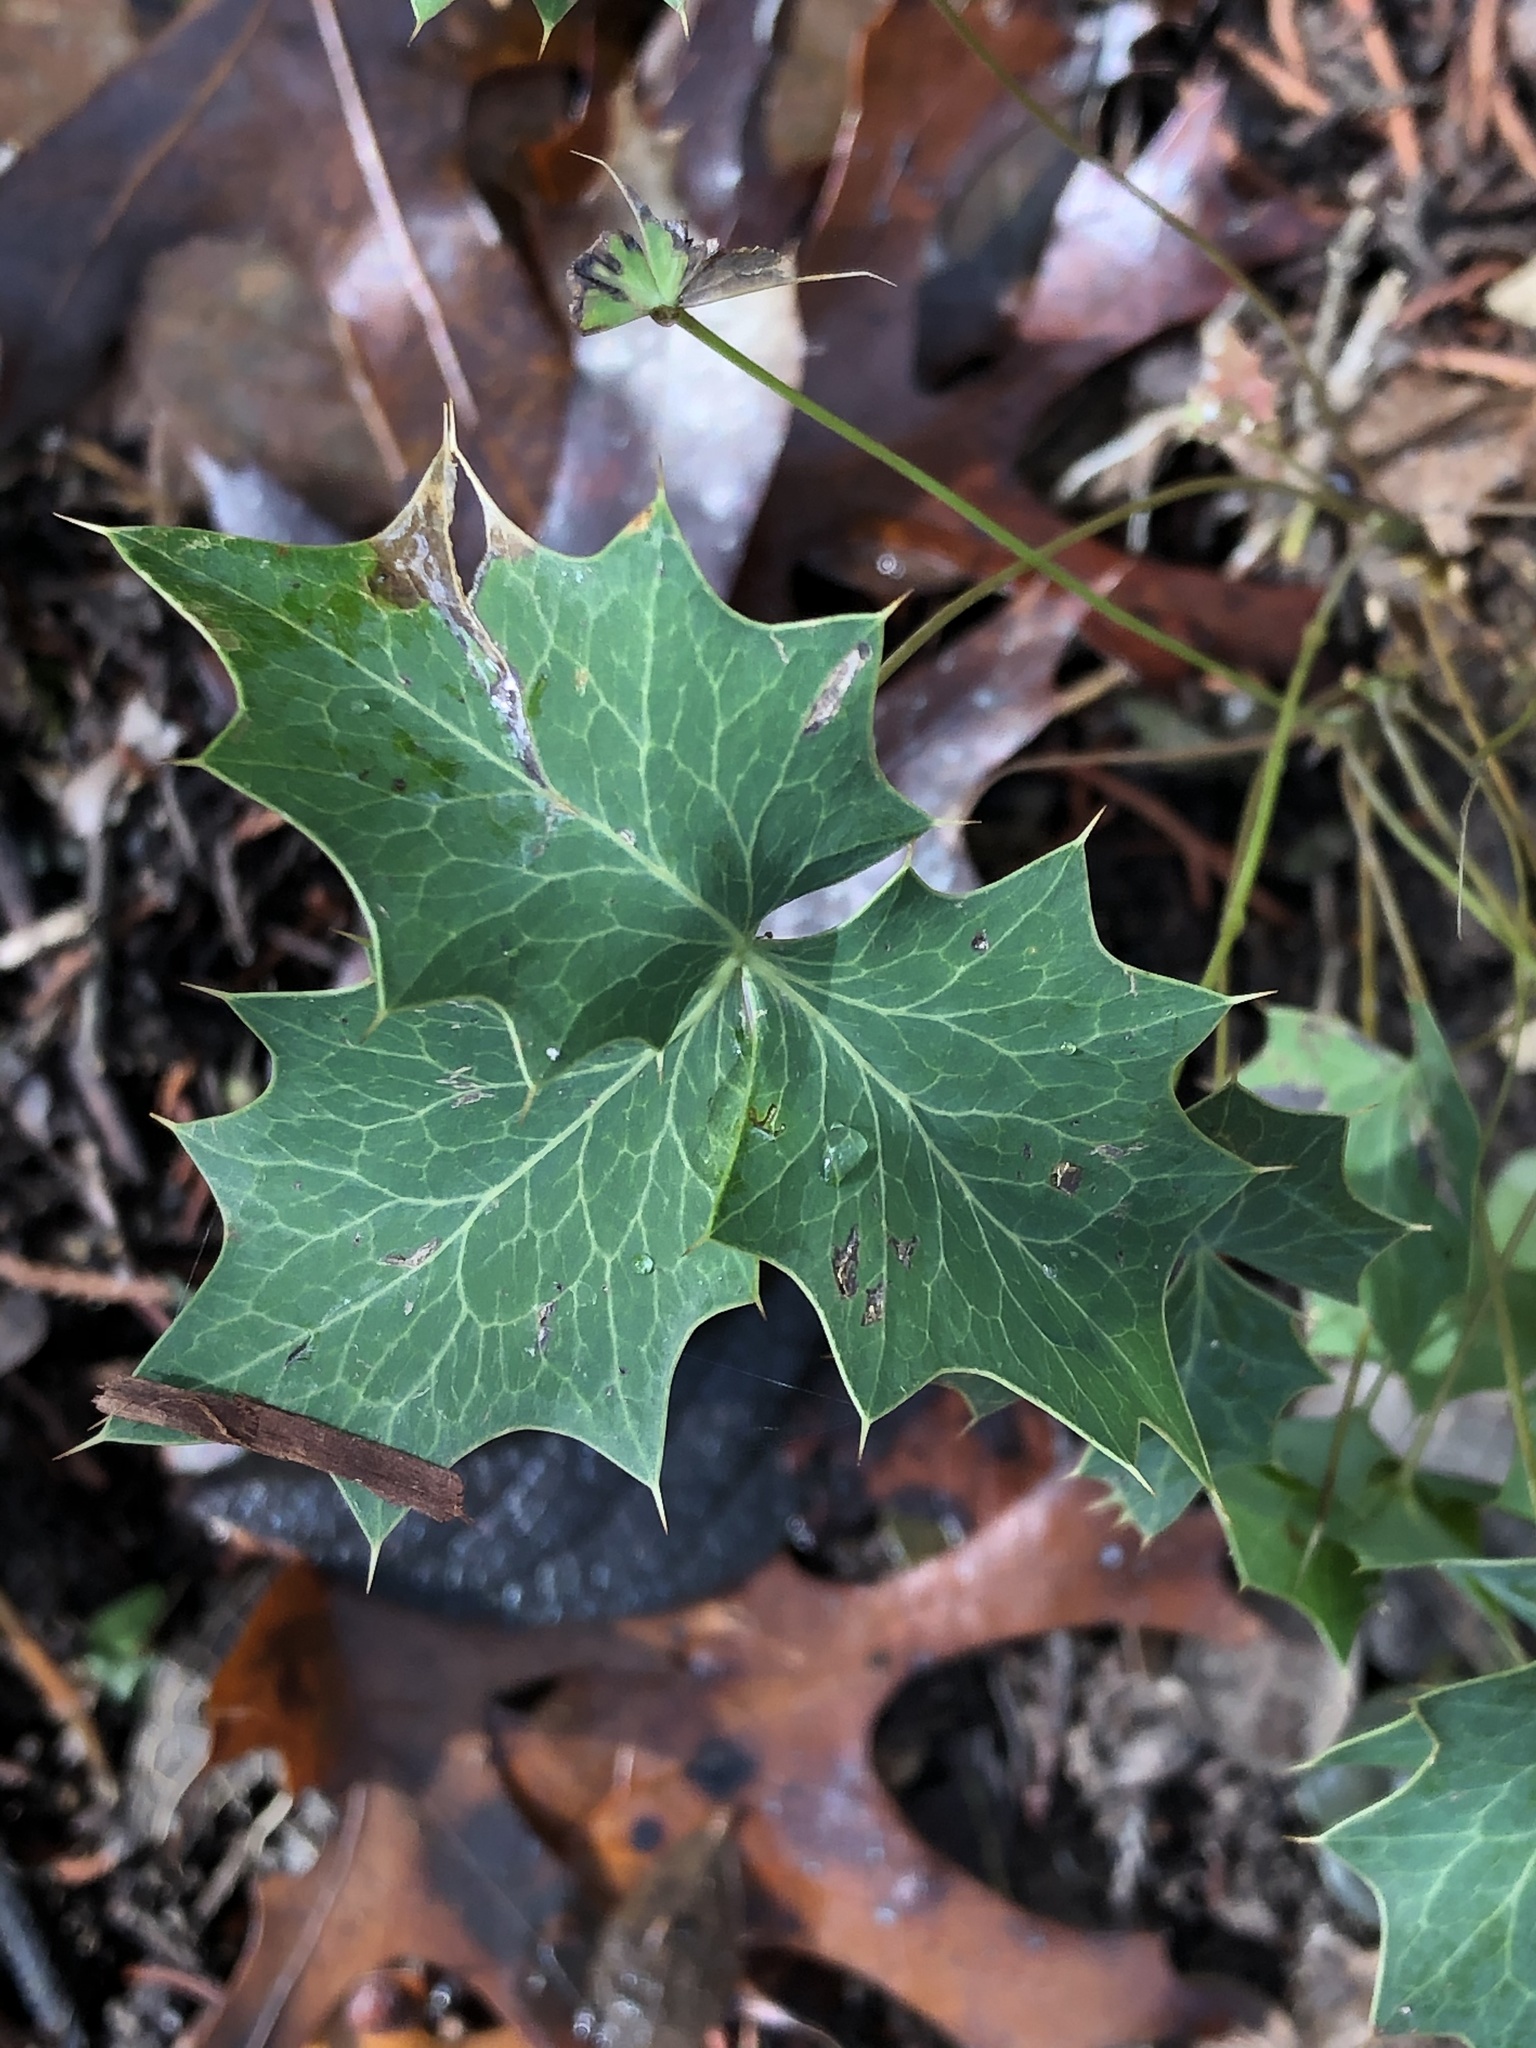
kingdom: Plantae
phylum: Tracheophyta
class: Magnoliopsida
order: Ranunculales
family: Berberidaceae
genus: Alloberberis
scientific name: Alloberberis trifoliolata
